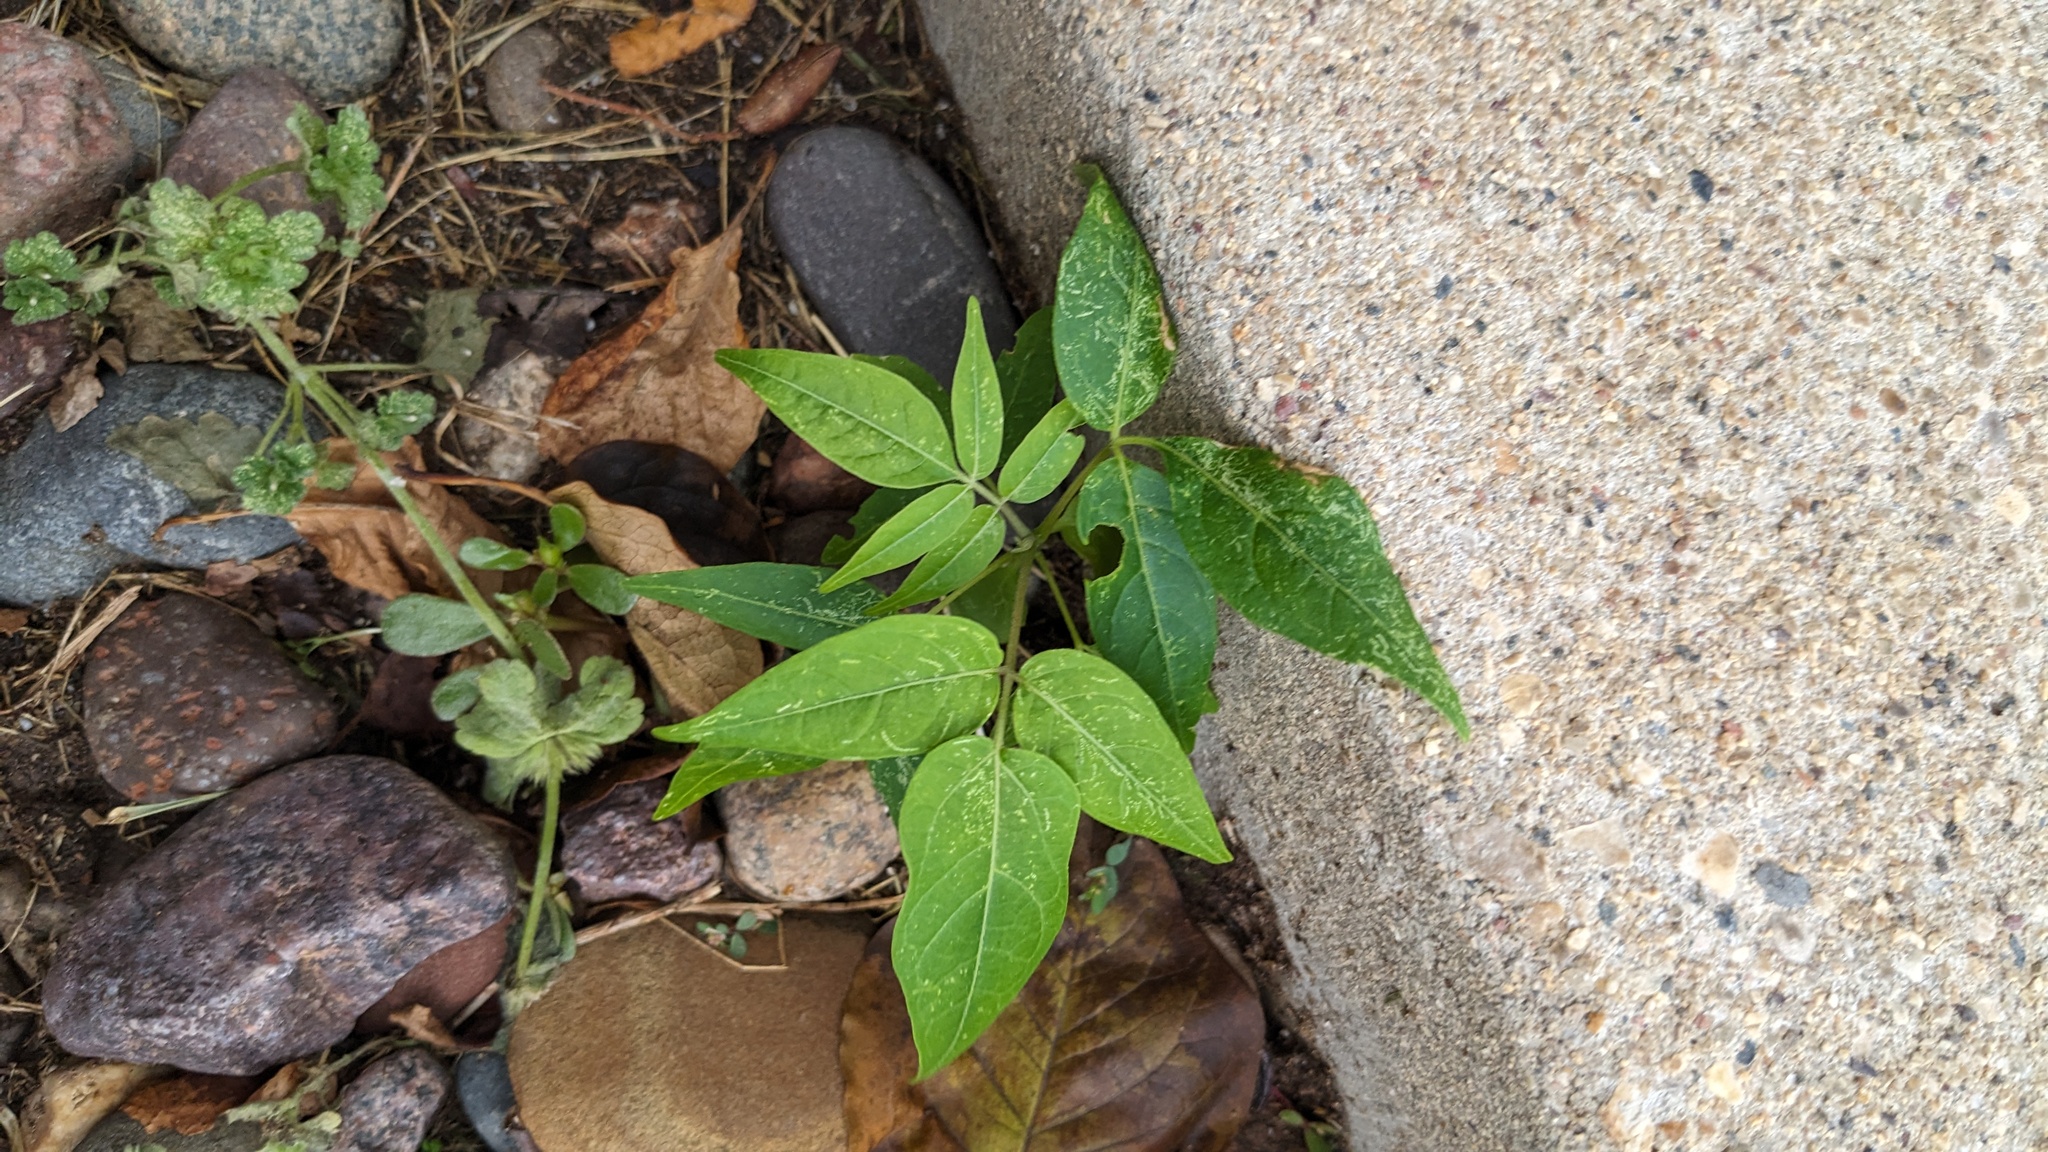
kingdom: Plantae
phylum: Tracheophyta
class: Magnoliopsida
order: Sapindales
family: Simaroubaceae
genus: Ailanthus
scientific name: Ailanthus altissima
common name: Tree-of-heaven
